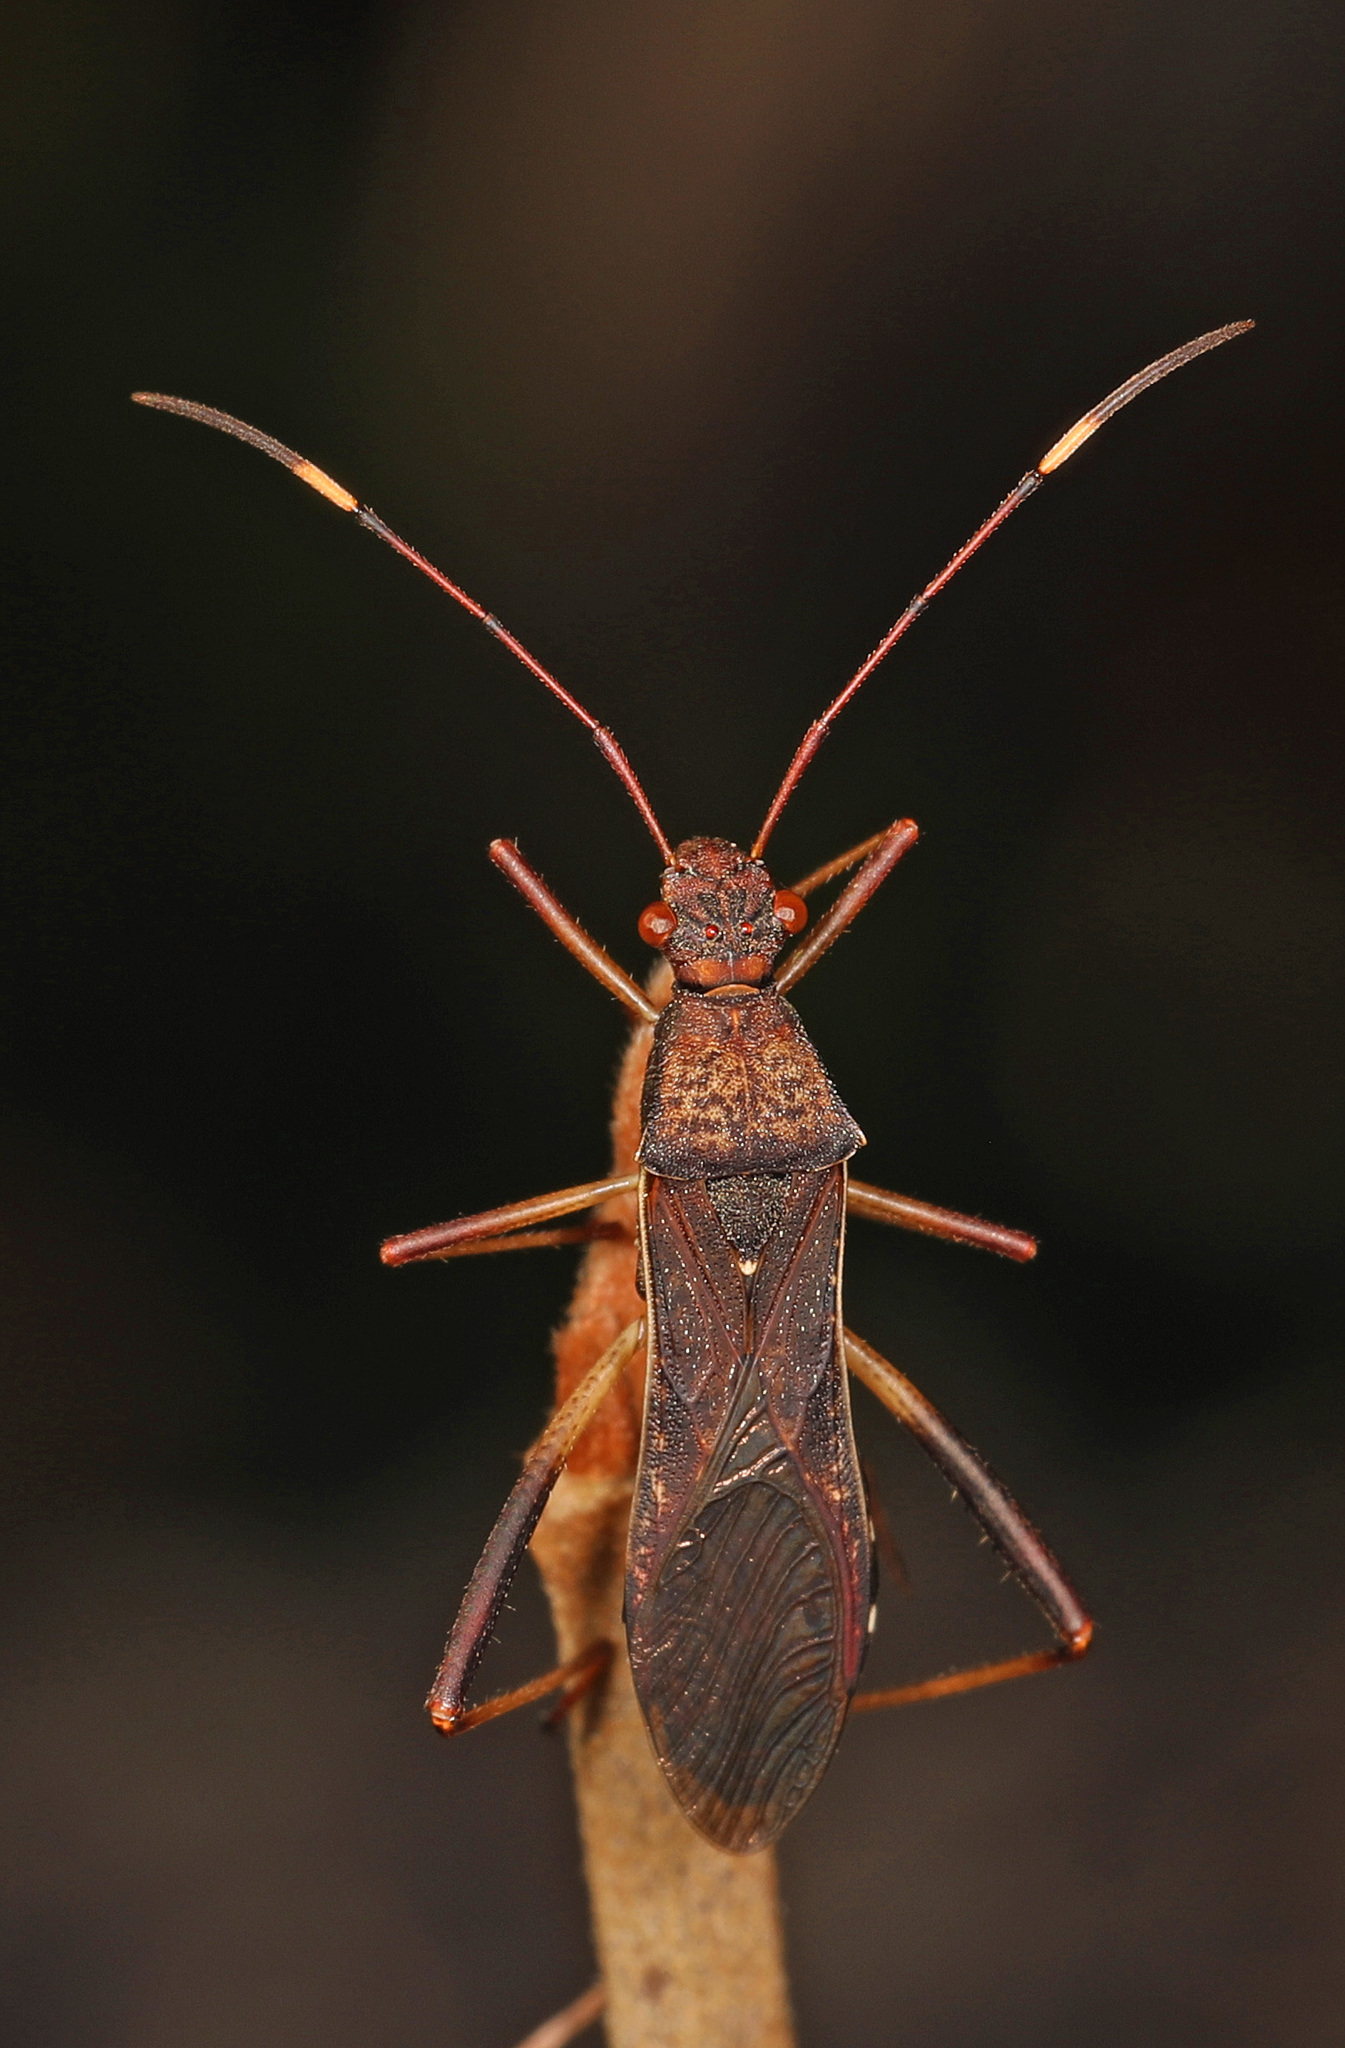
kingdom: Animalia
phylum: Arthropoda
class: Insecta
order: Hemiptera
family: Alydidae
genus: Megalotomus
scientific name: Megalotomus quinquespinosus
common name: Lupine bug
